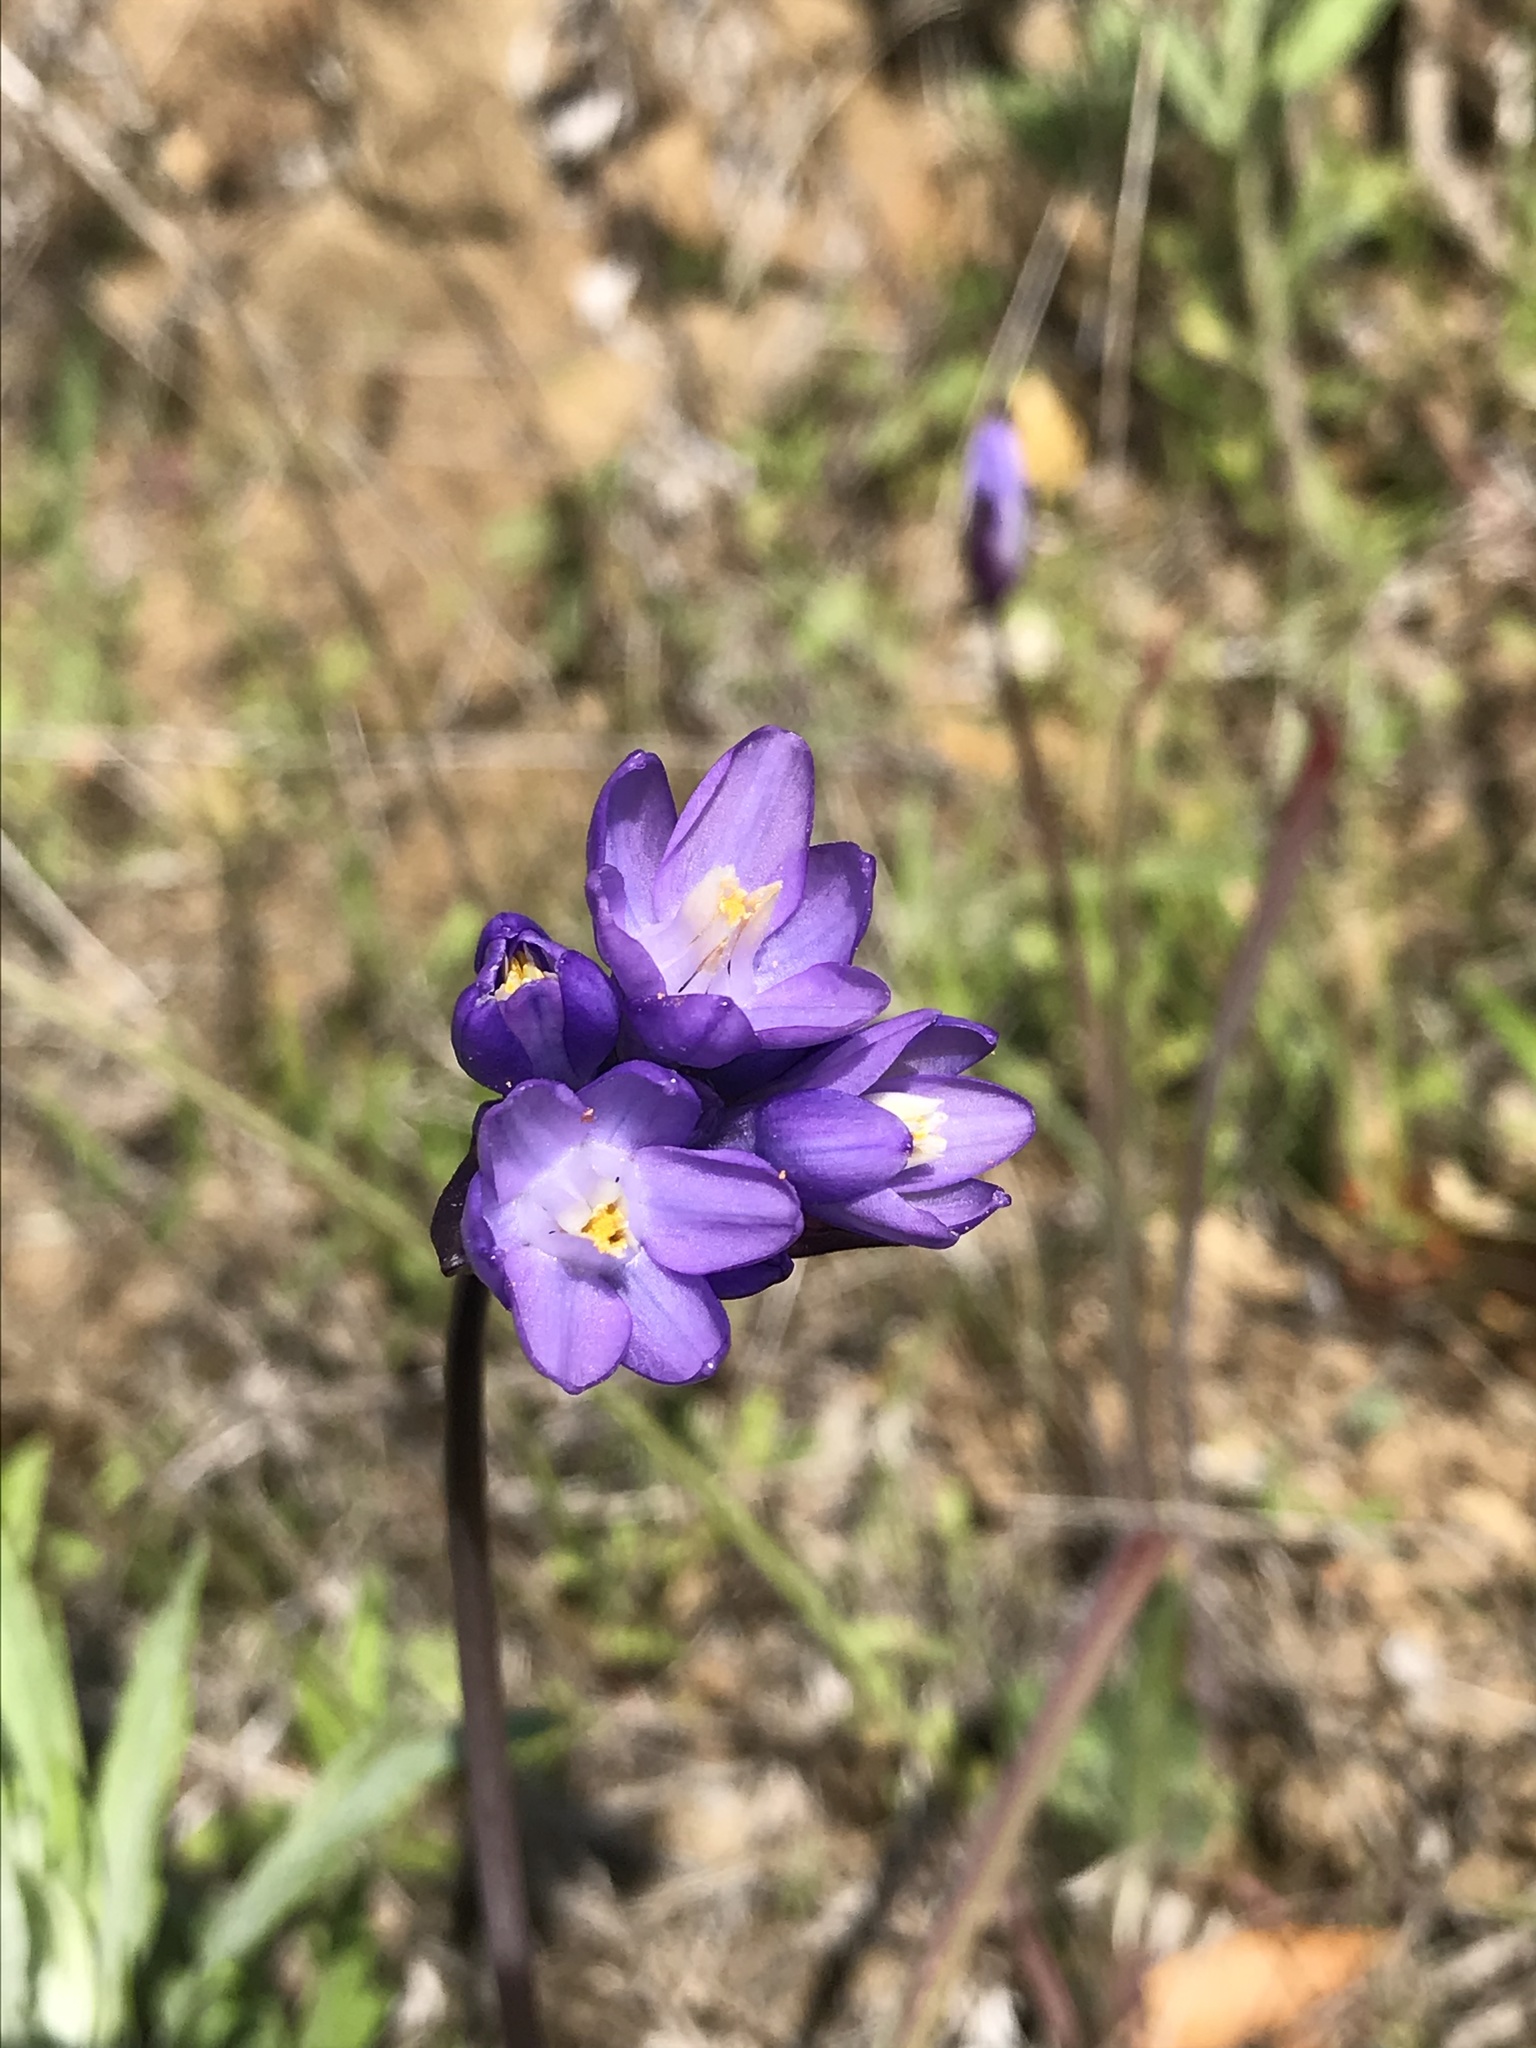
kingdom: Plantae
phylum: Tracheophyta
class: Liliopsida
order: Asparagales
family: Asparagaceae
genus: Dipterostemon
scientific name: Dipterostemon capitatus
